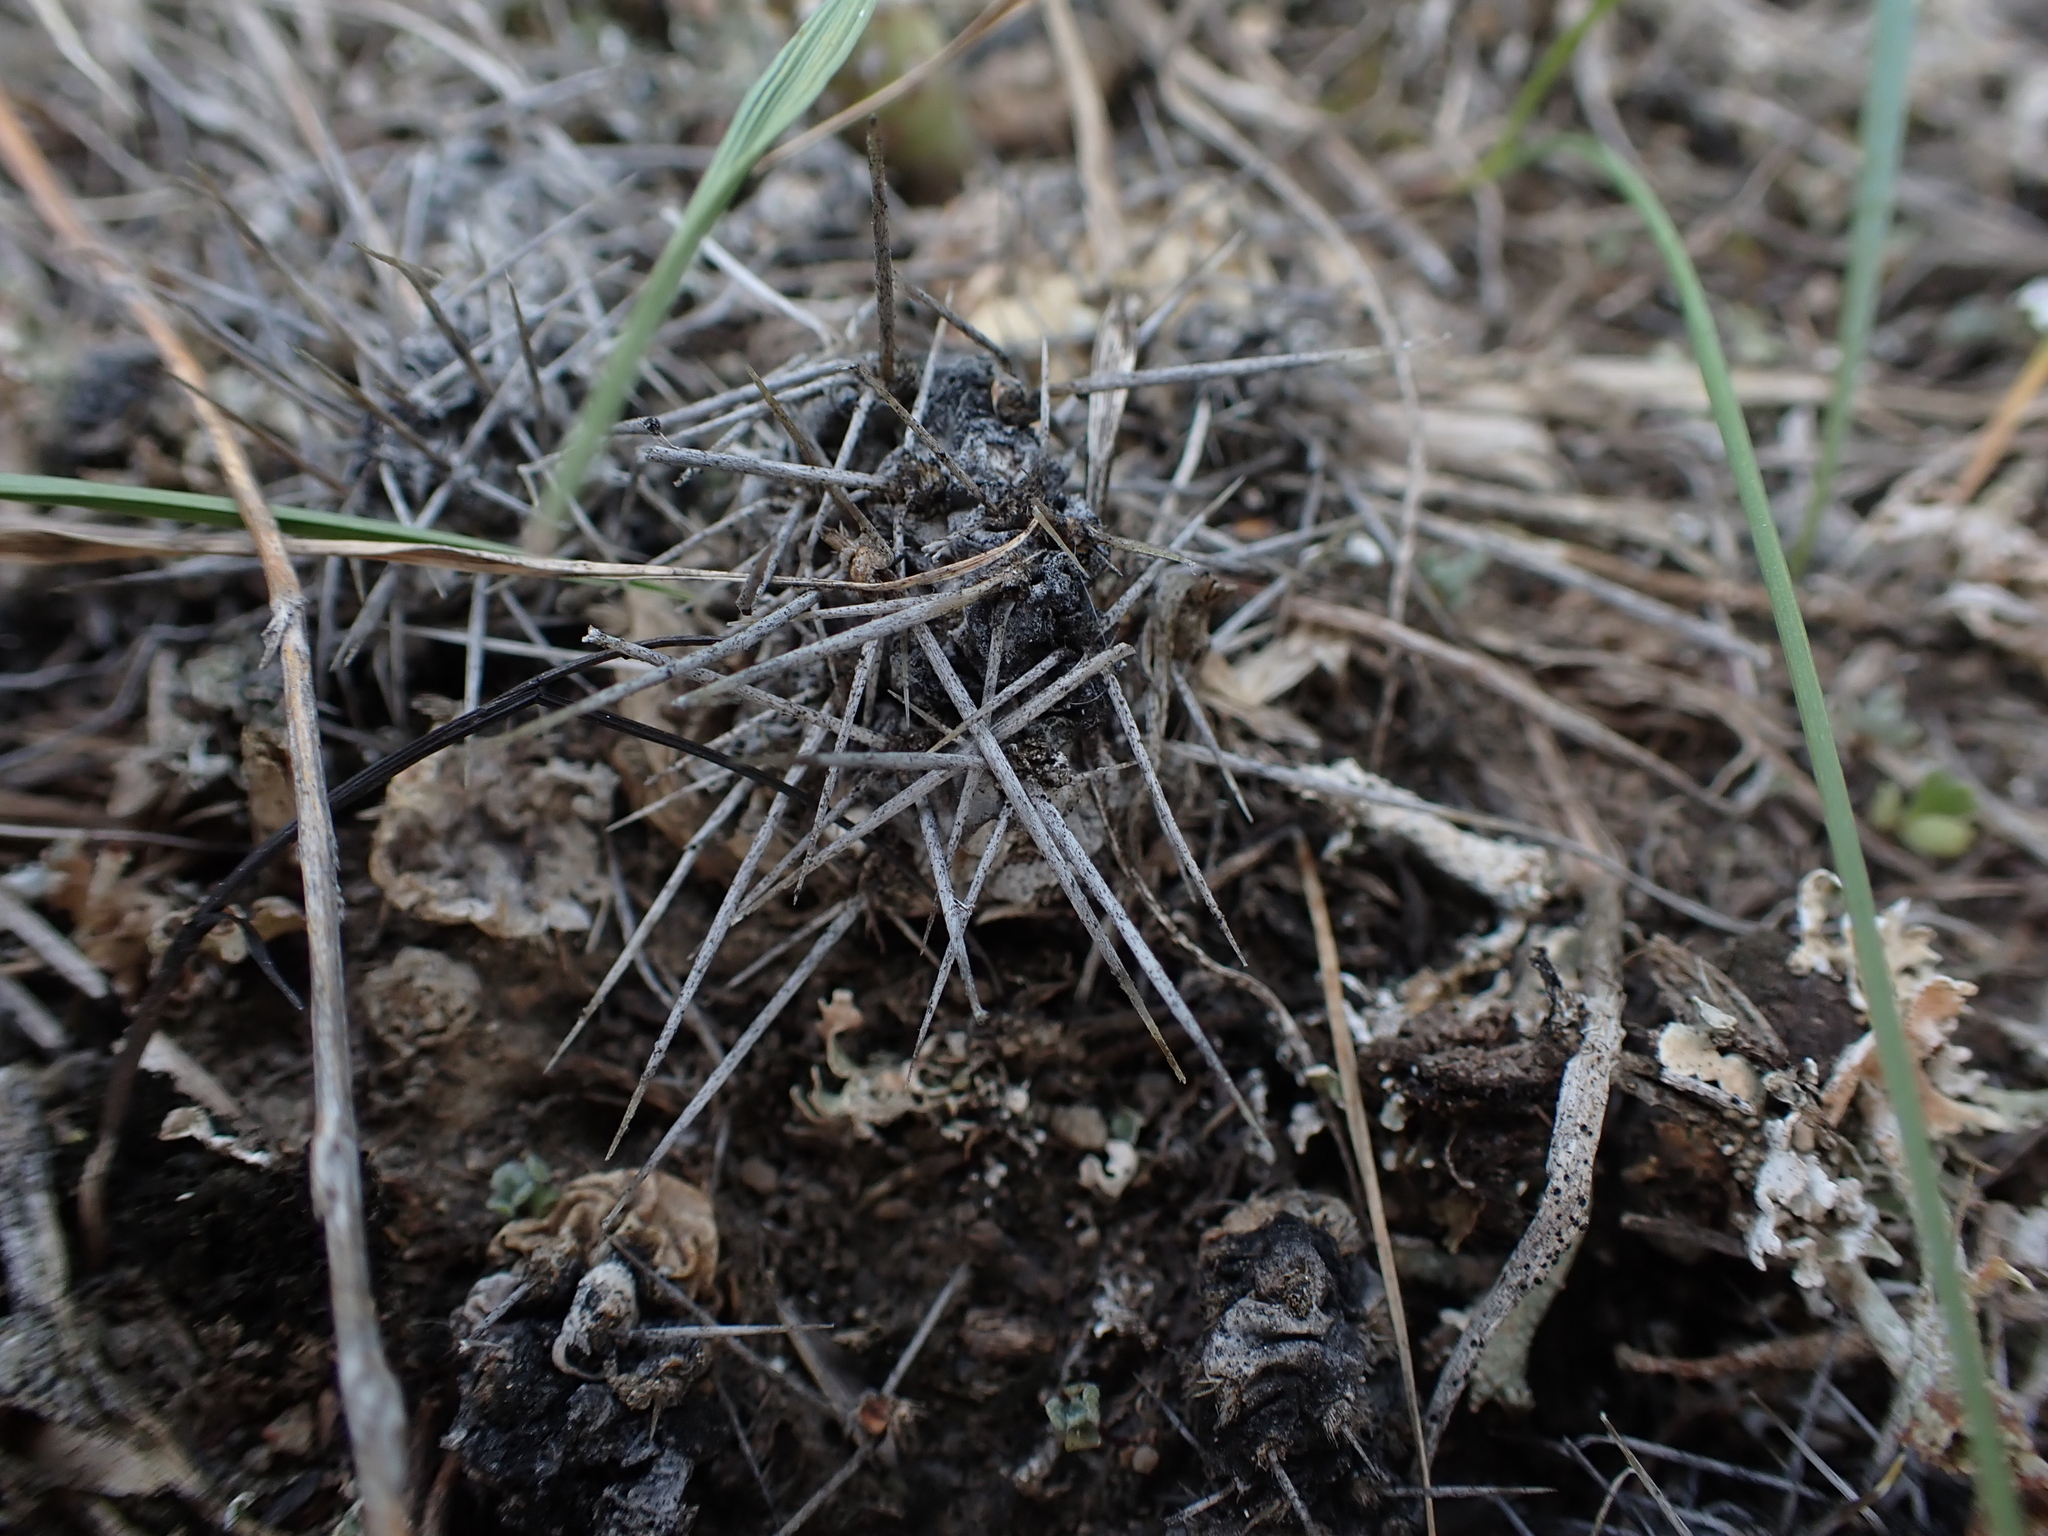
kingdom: Plantae
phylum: Tracheophyta
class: Magnoliopsida
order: Caryophyllales
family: Cactaceae
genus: Opuntia
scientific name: Opuntia fragilis
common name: Brittle cactus
